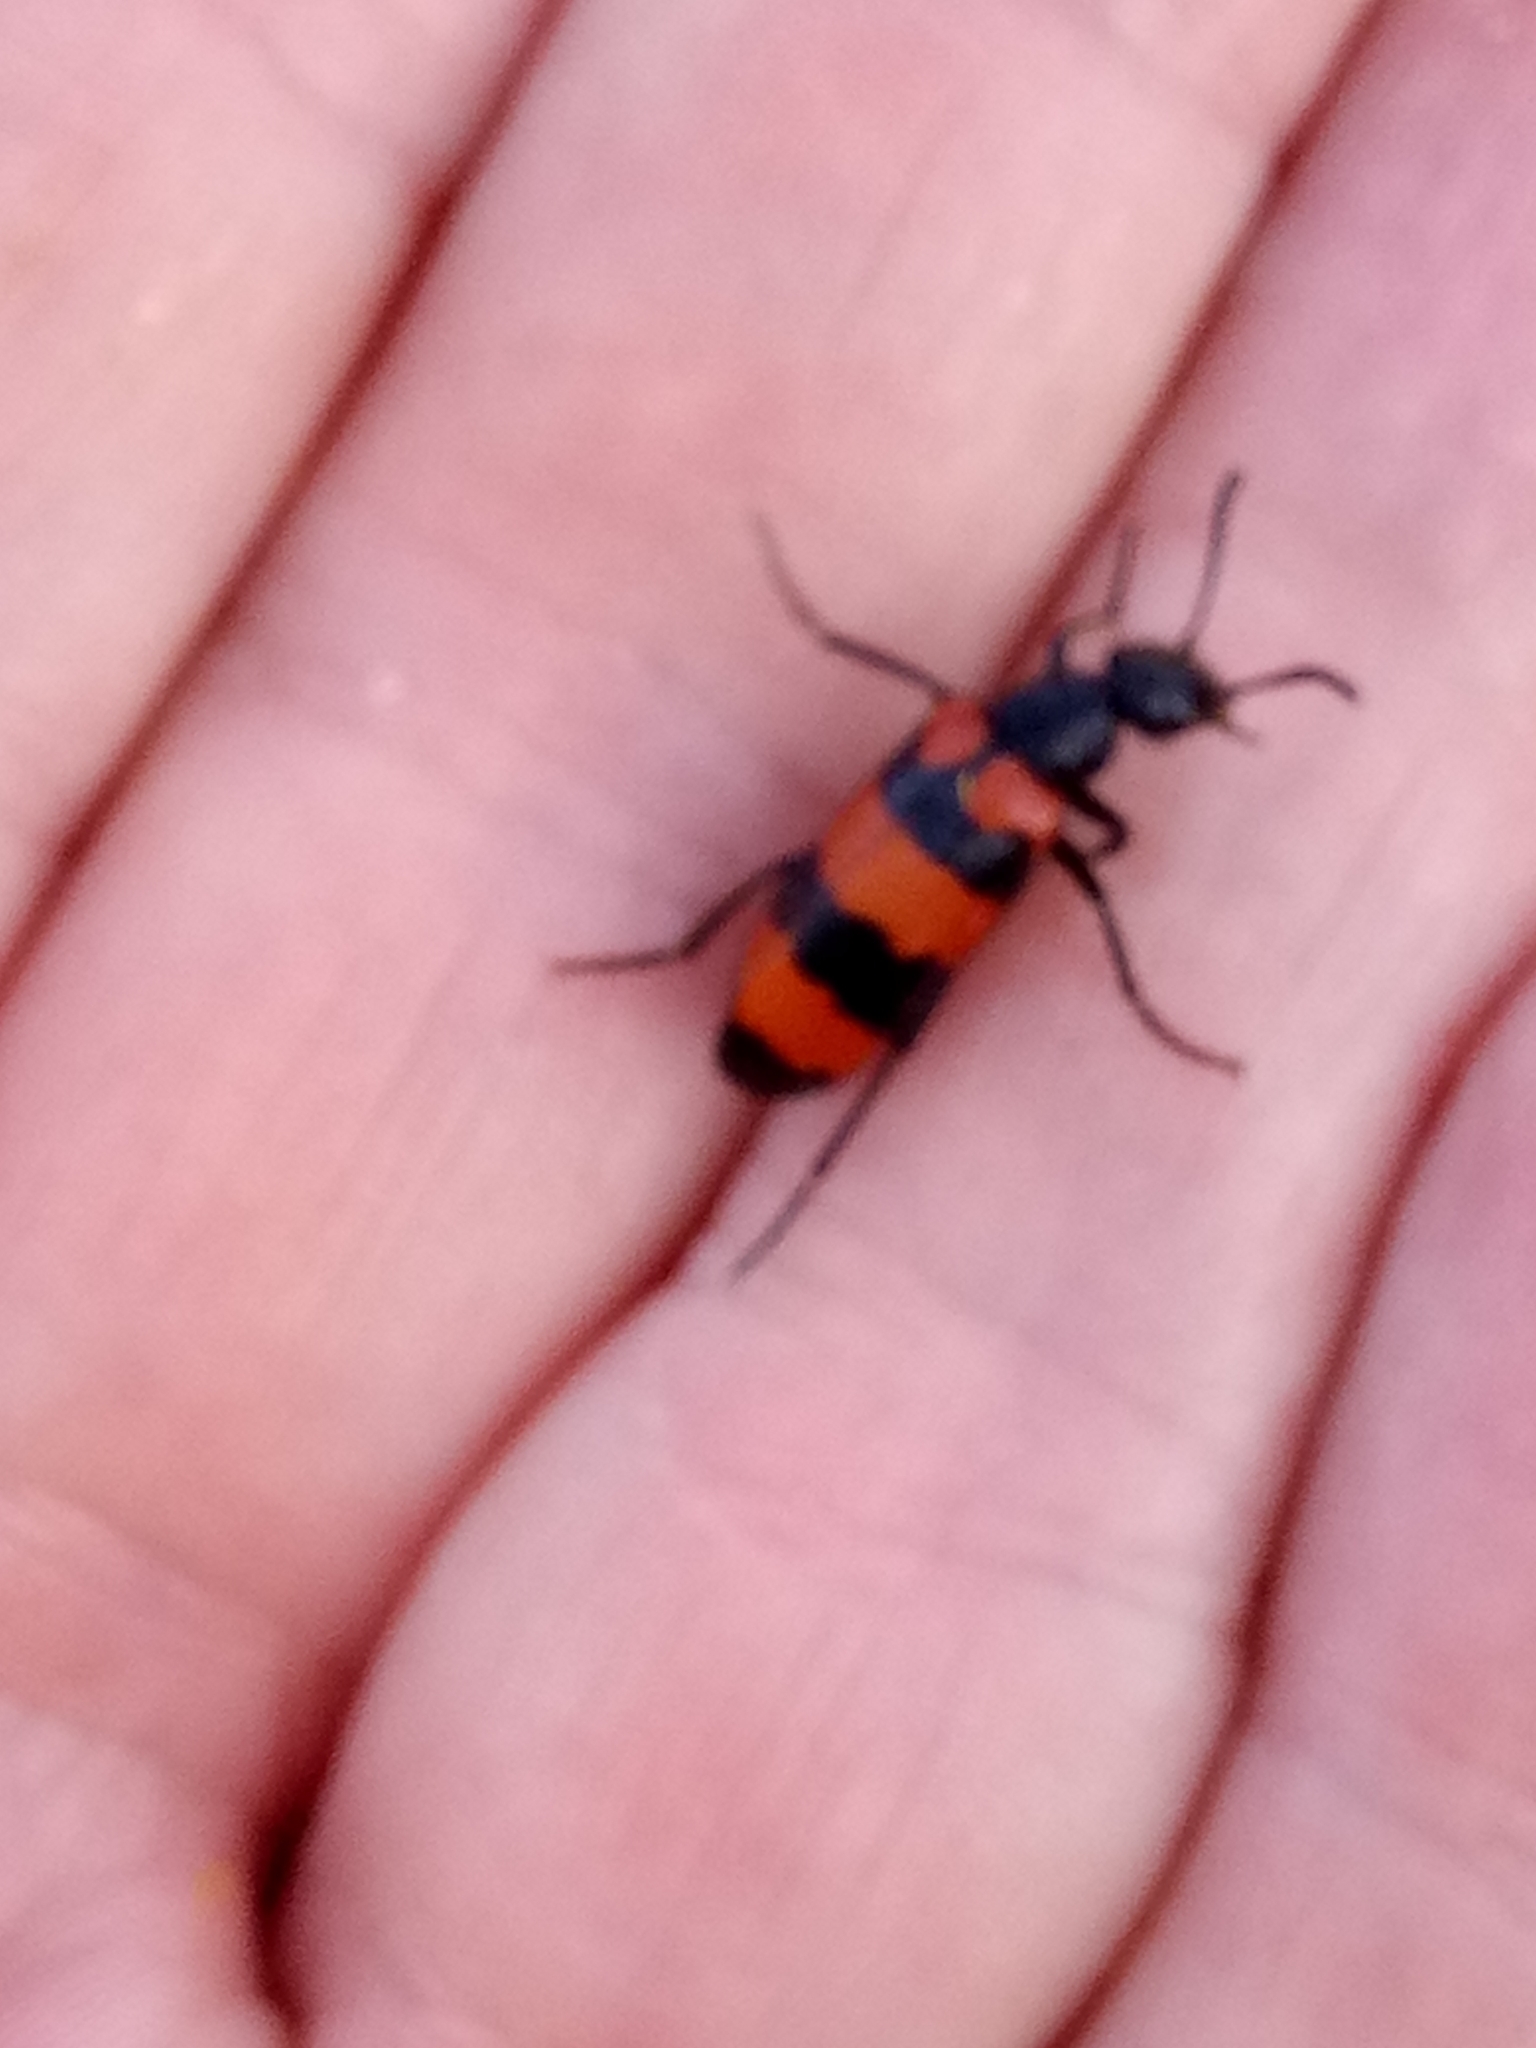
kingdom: Animalia
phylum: Arthropoda
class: Insecta
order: Coleoptera
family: Meloidae
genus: Mylabris
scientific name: Mylabris tricincta
